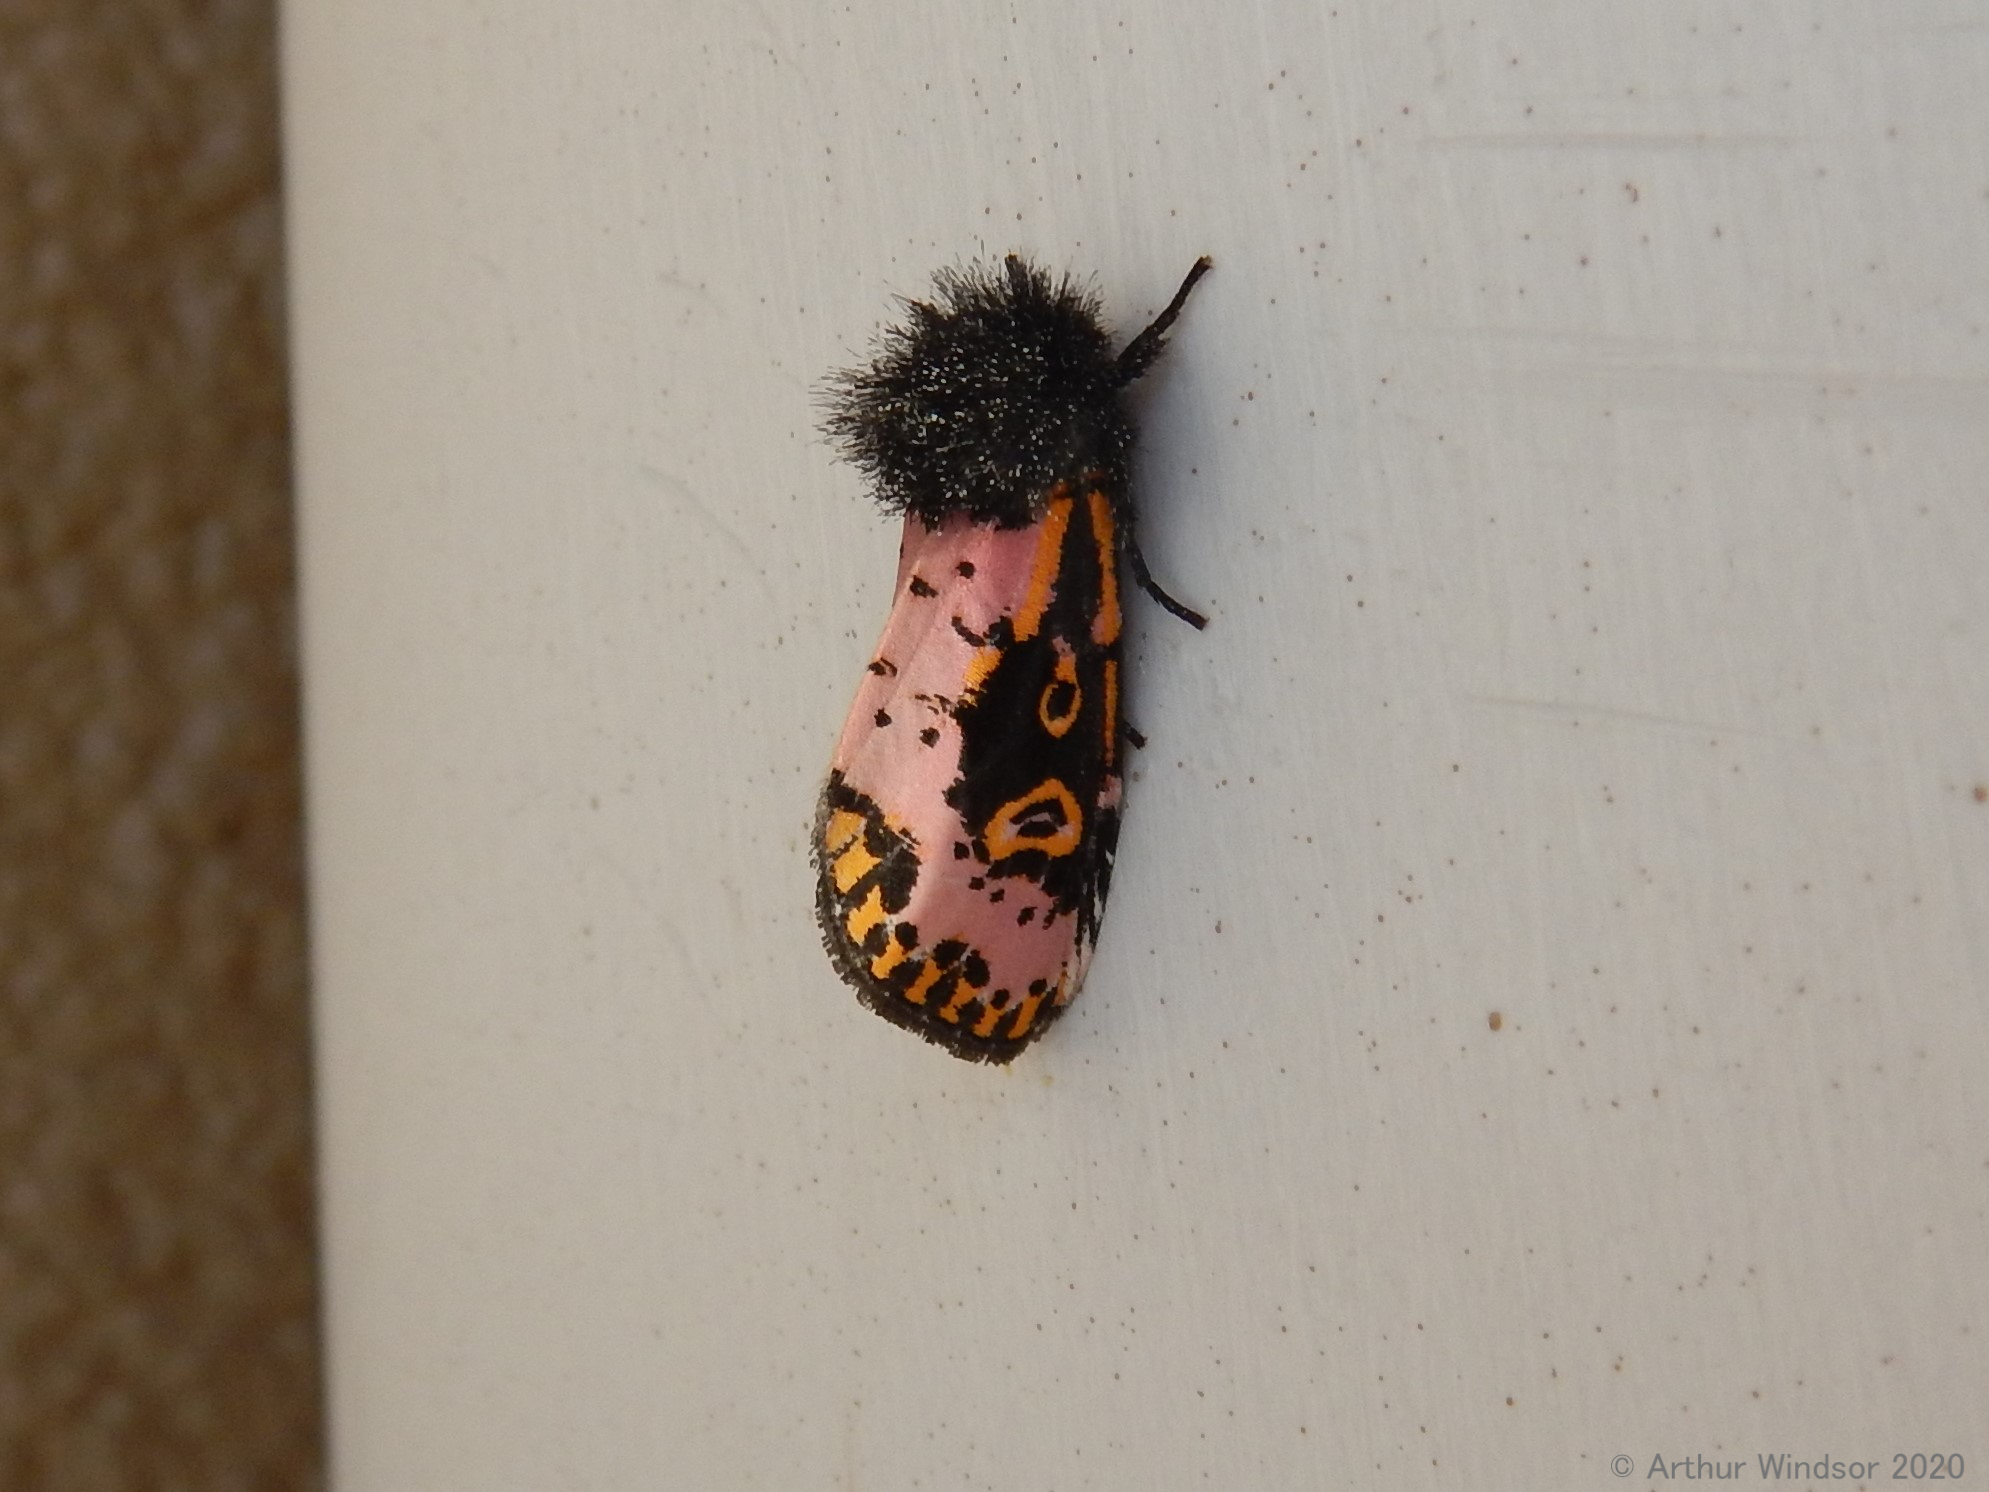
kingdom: Animalia
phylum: Arthropoda
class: Insecta
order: Lepidoptera
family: Noctuidae
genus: Xanthopastis
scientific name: Xanthopastis regnatrix
